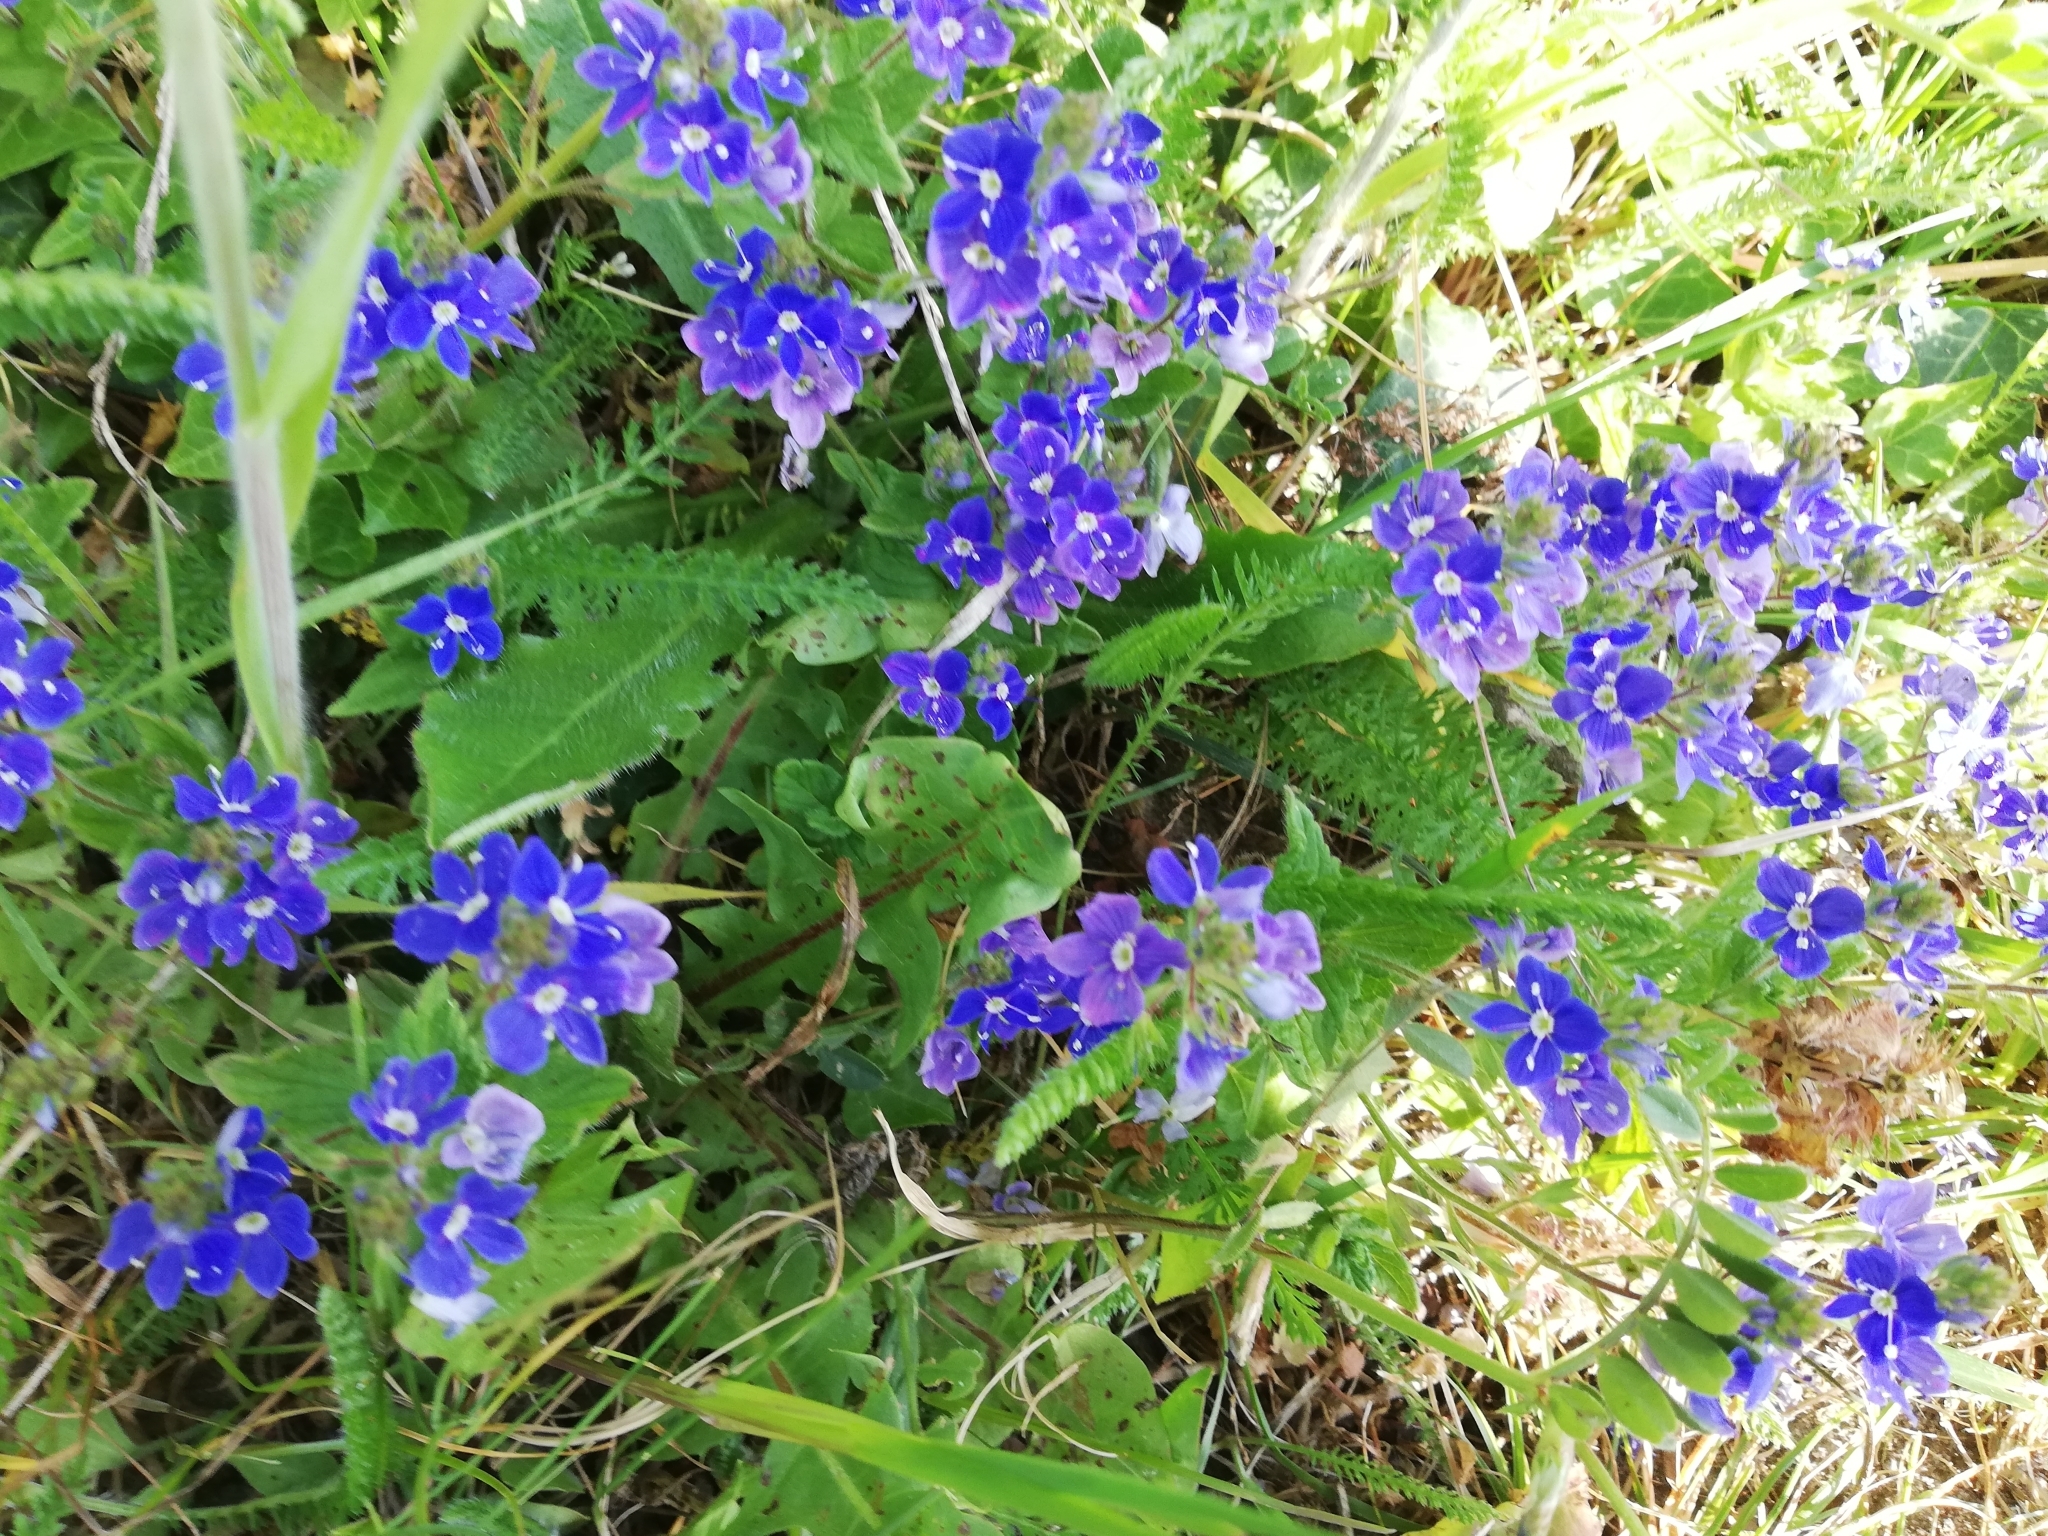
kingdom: Plantae
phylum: Tracheophyta
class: Magnoliopsida
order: Lamiales
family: Plantaginaceae
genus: Veronica
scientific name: Veronica chamaedrys
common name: Germander speedwell
